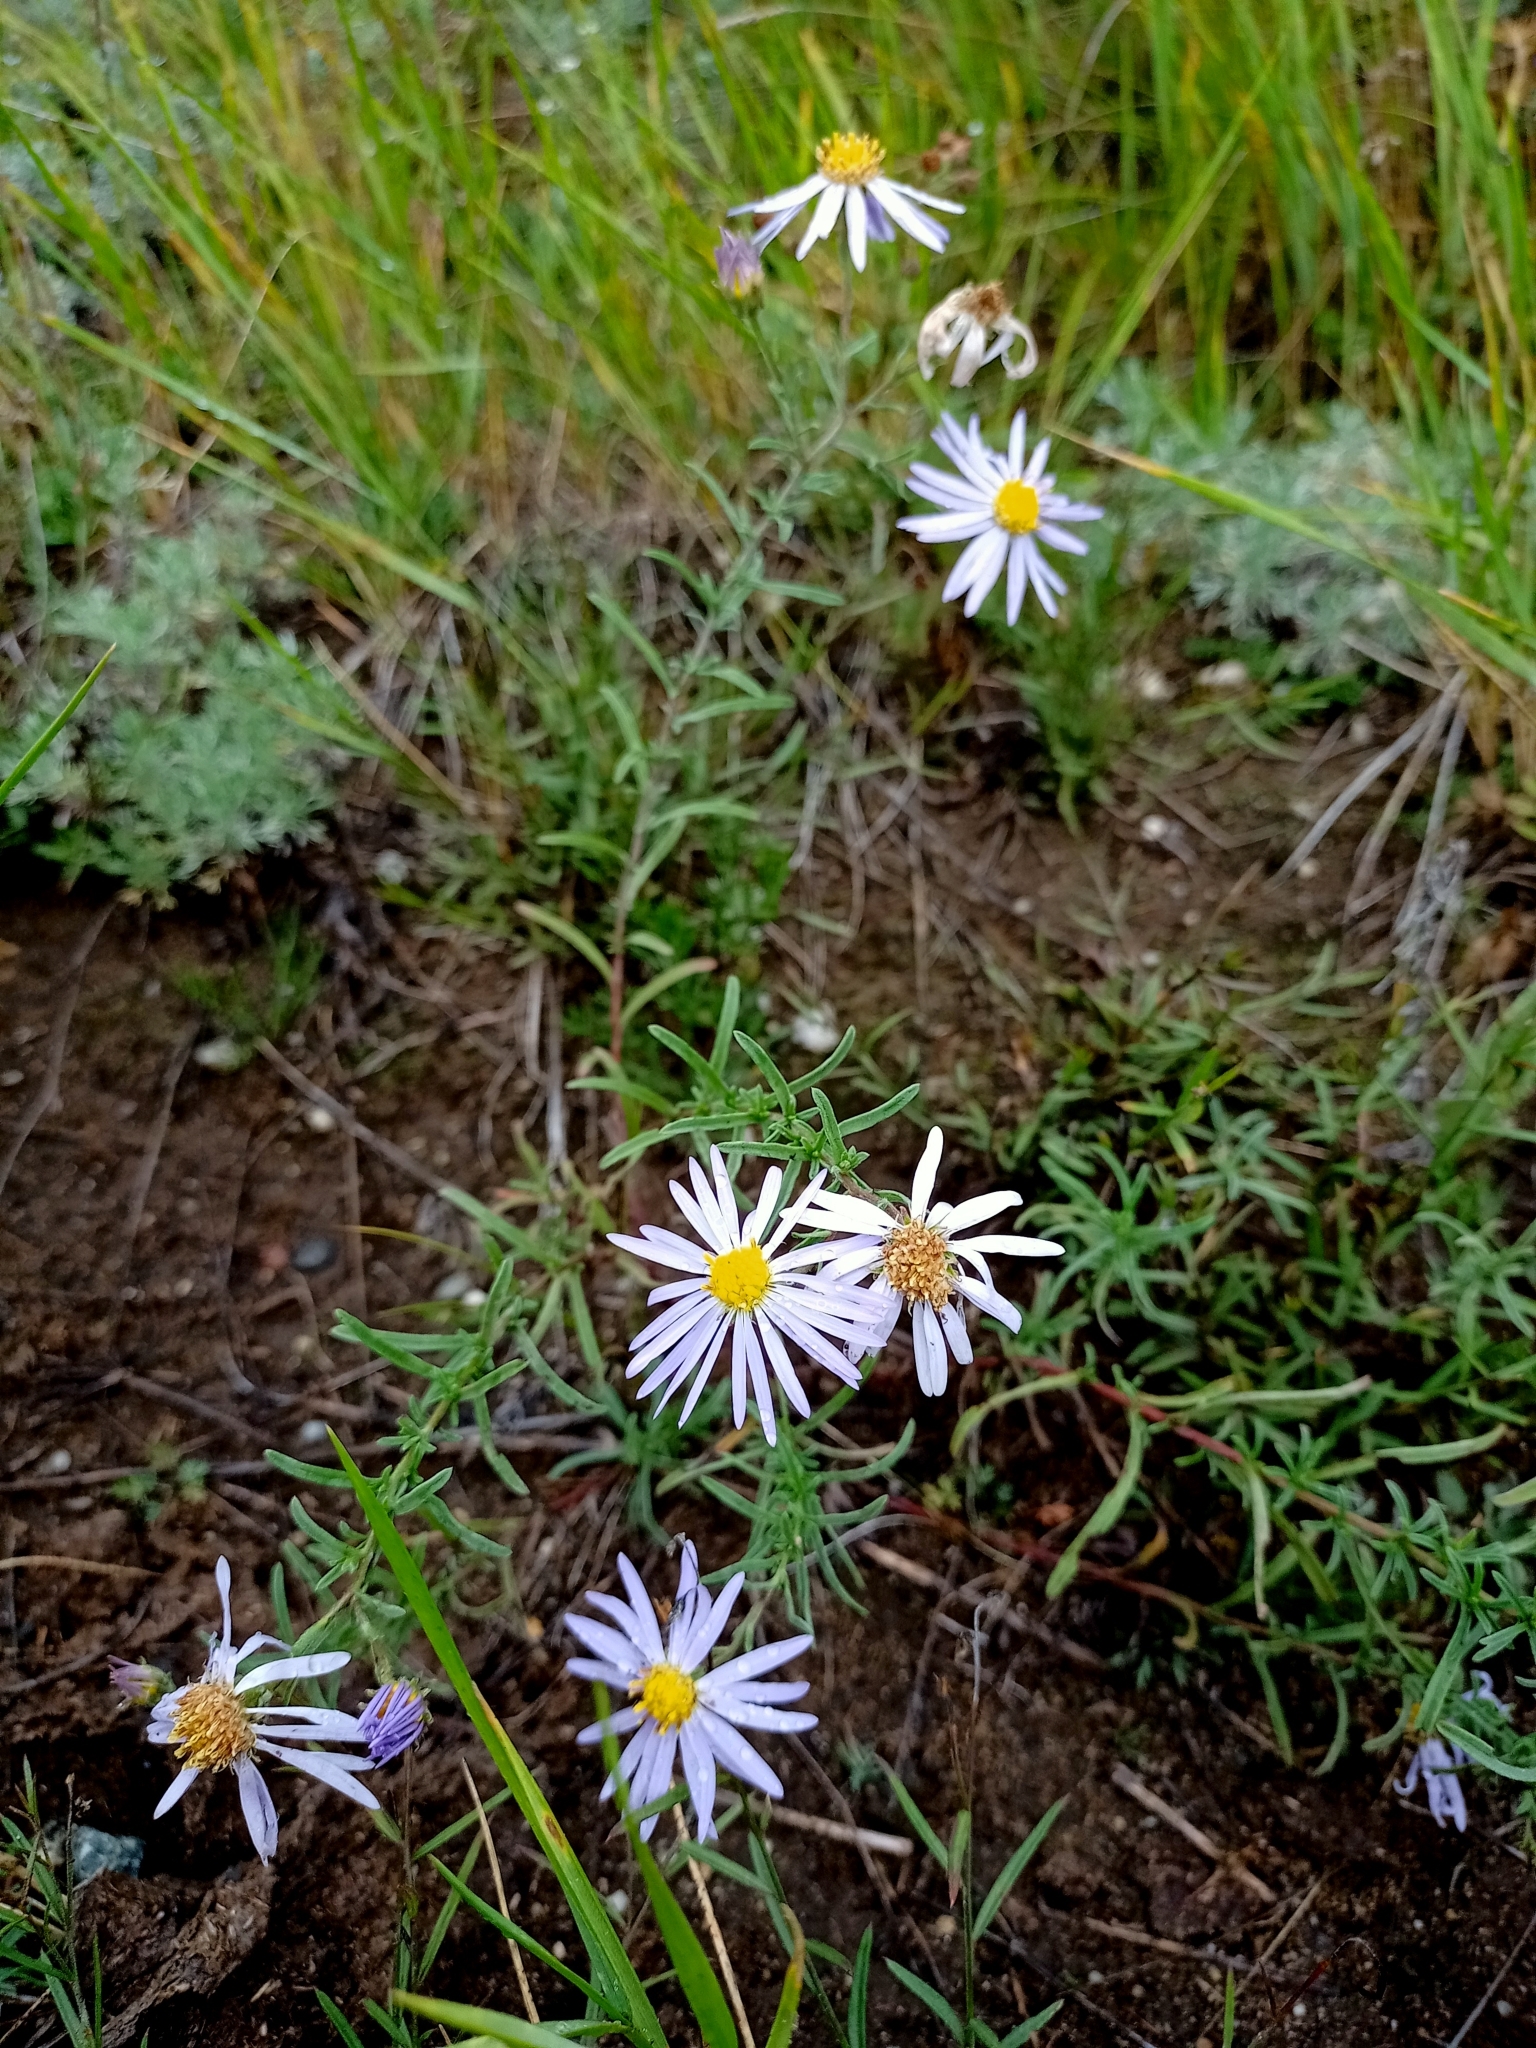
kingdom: Plantae
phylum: Tracheophyta
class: Magnoliopsida
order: Asterales
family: Asteraceae
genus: Heteropappus
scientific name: Heteropappus altaicus
